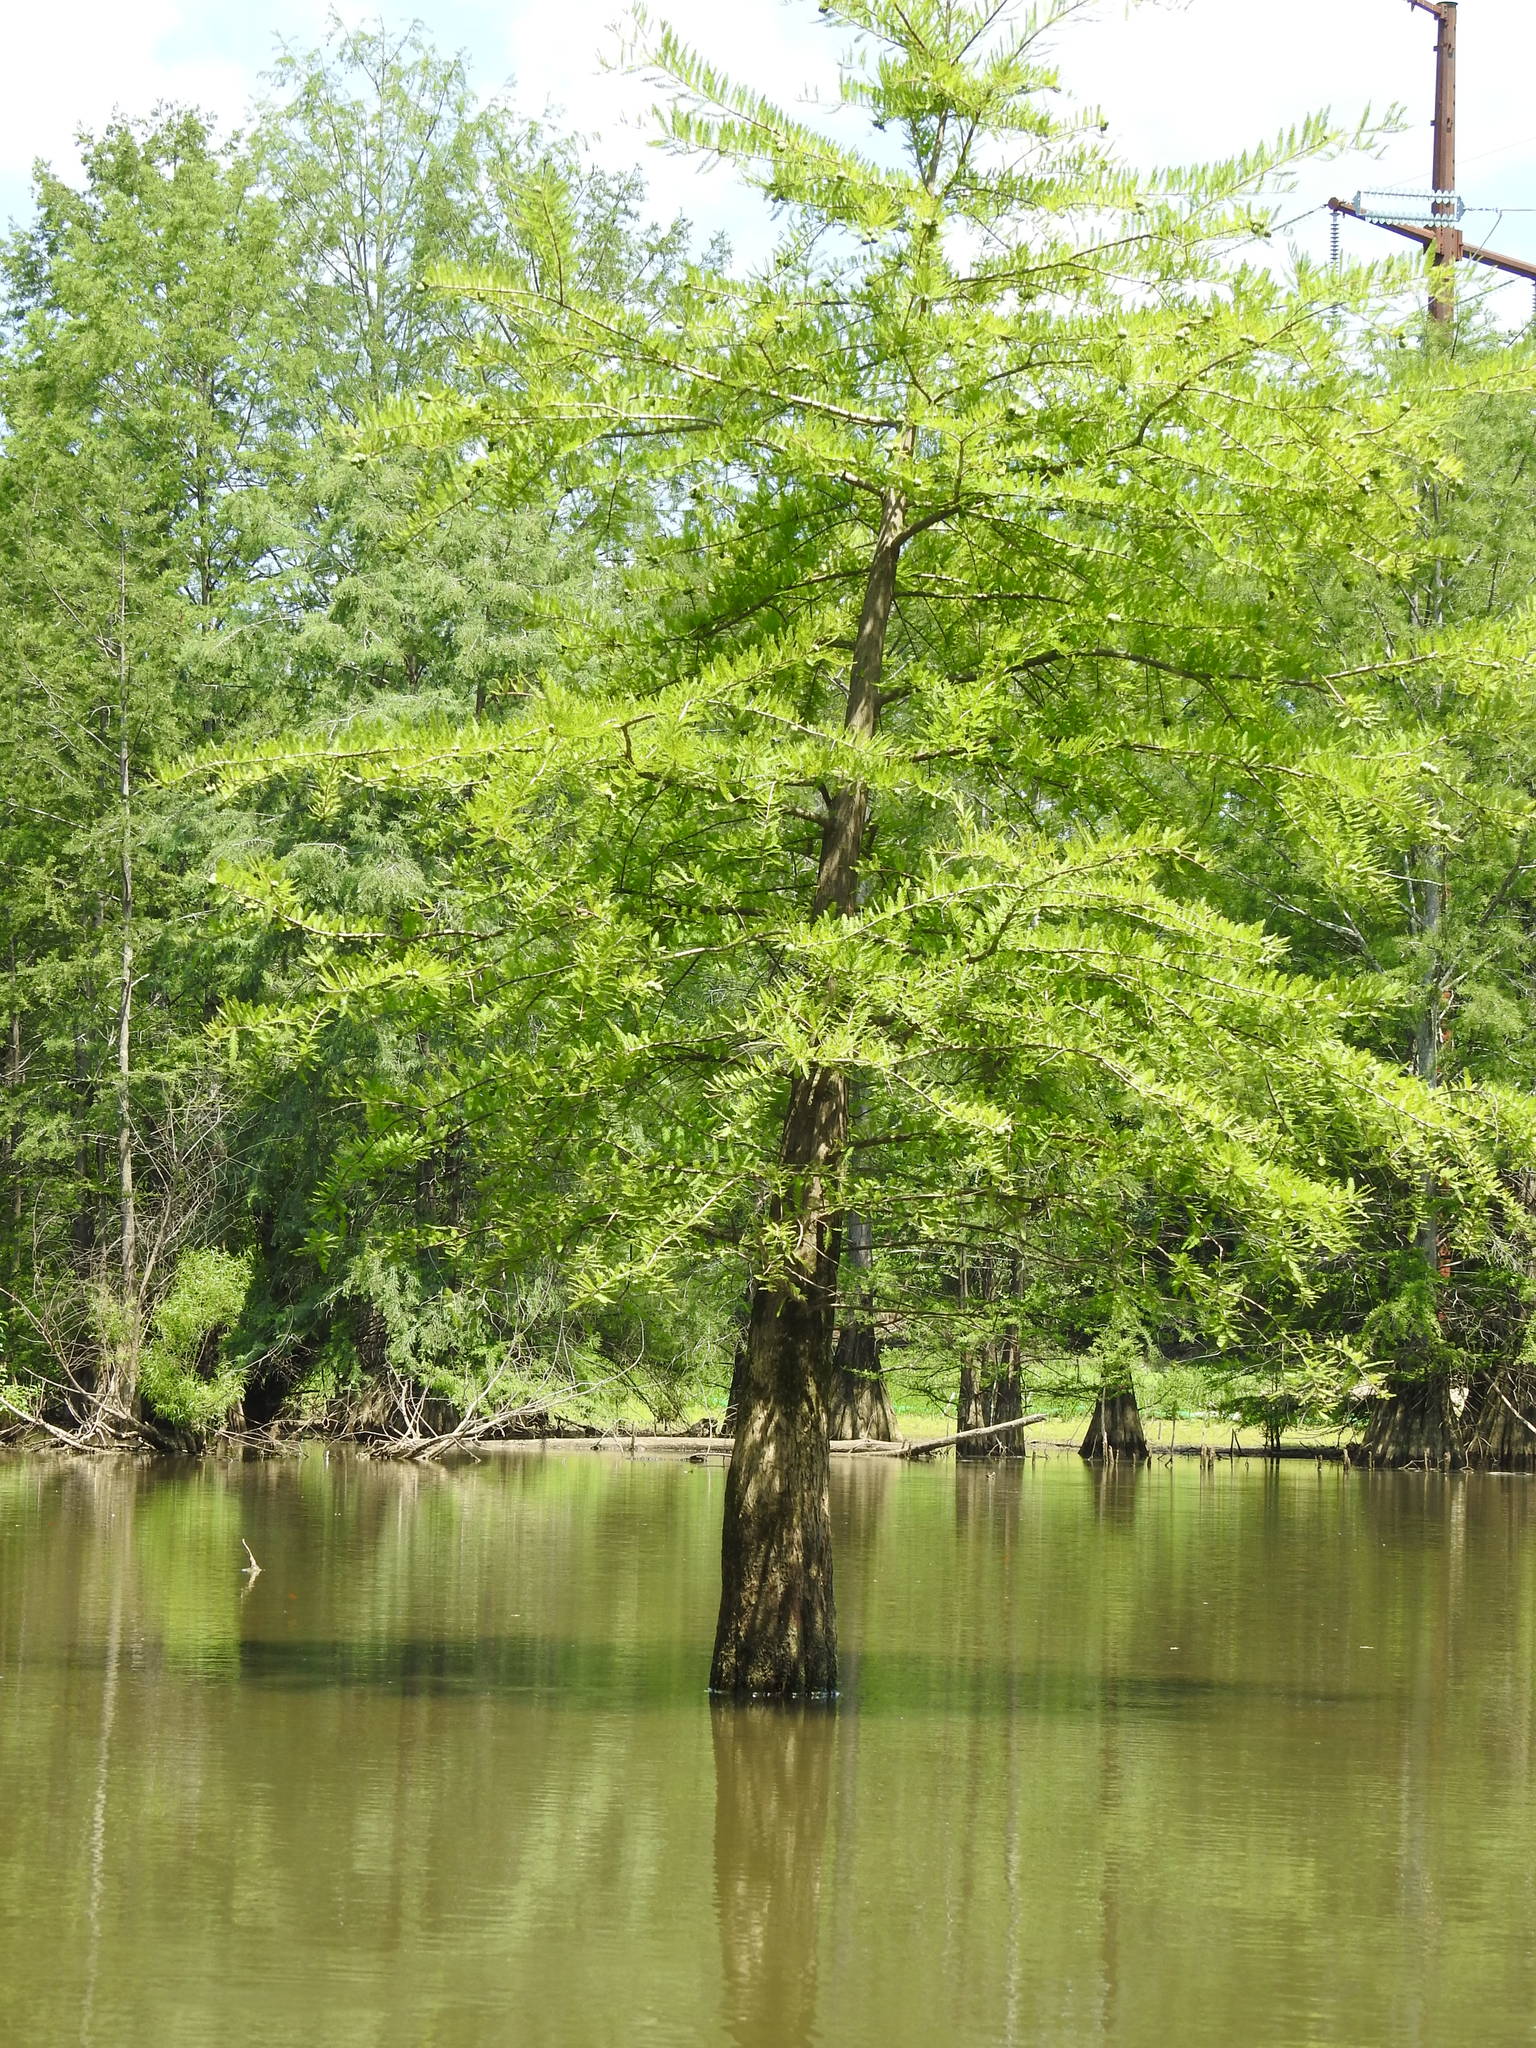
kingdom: Plantae
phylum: Tracheophyta
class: Pinopsida
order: Pinales
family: Cupressaceae
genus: Taxodium
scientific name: Taxodium distichum
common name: Bald cypress
